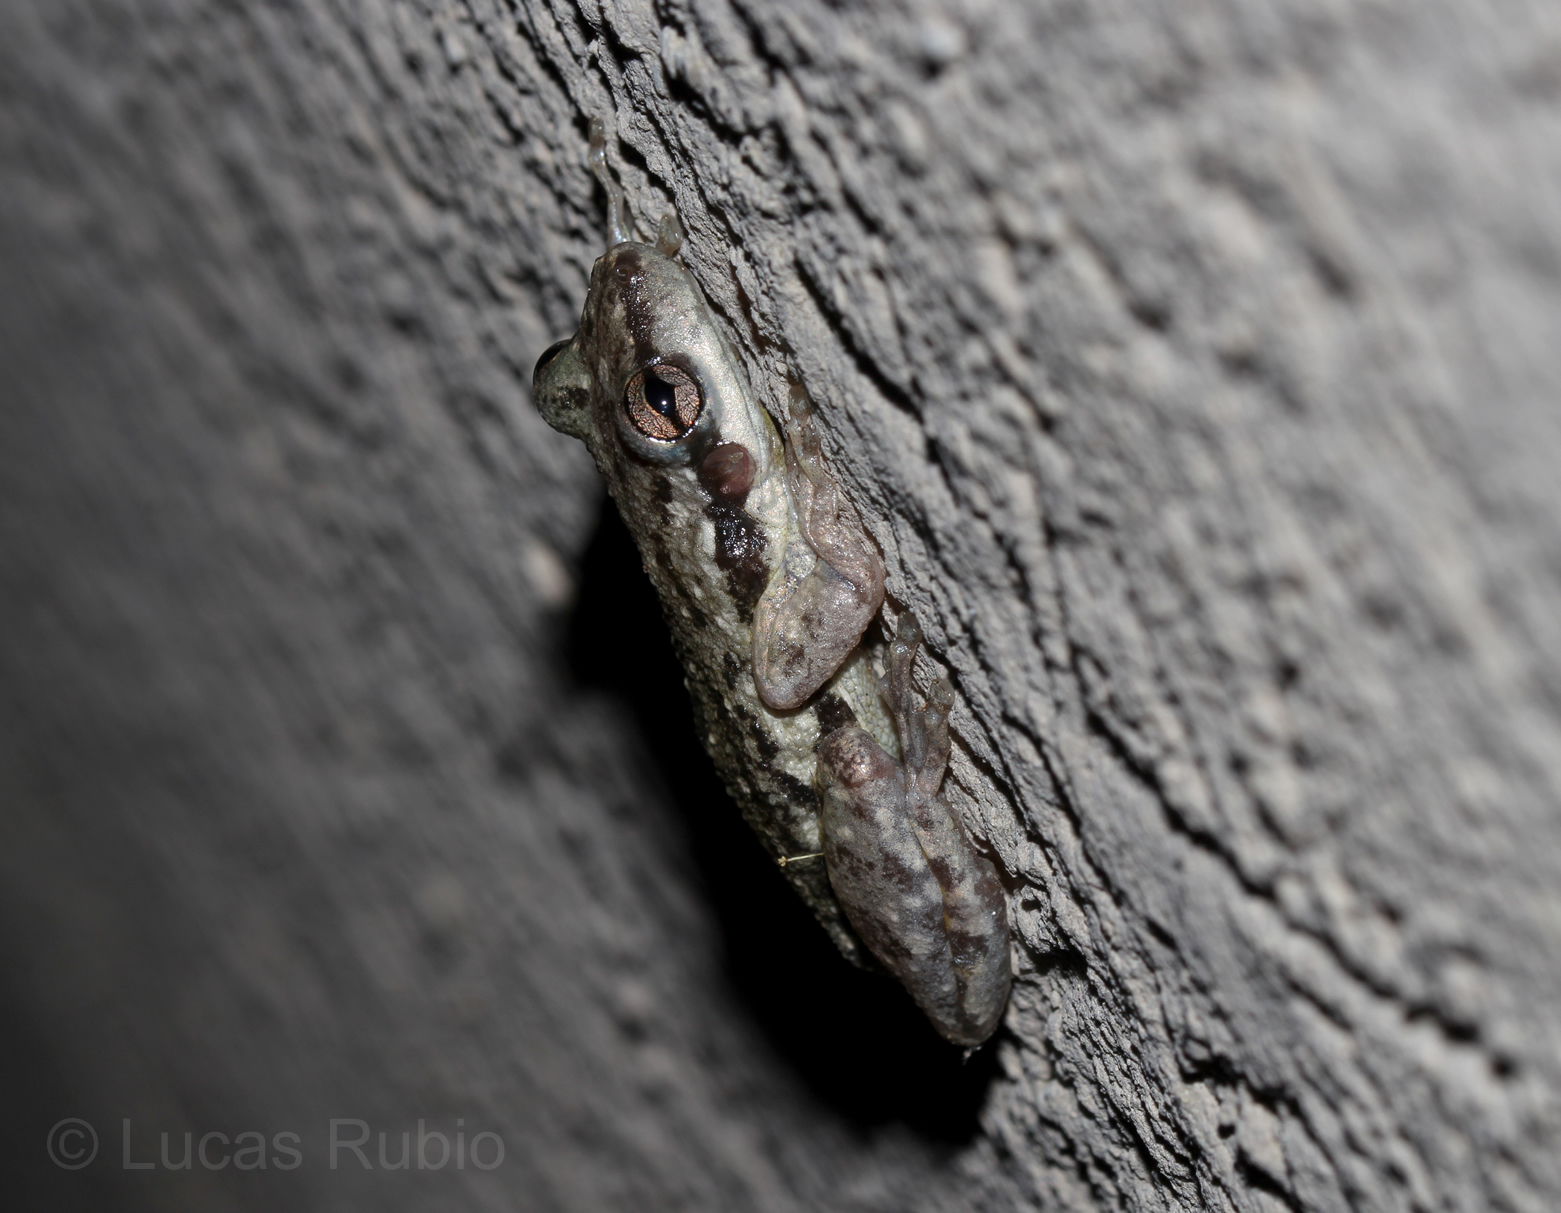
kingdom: Animalia
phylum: Chordata
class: Amphibia
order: Anura
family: Hylidae
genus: Scinax
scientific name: Scinax granulatus
